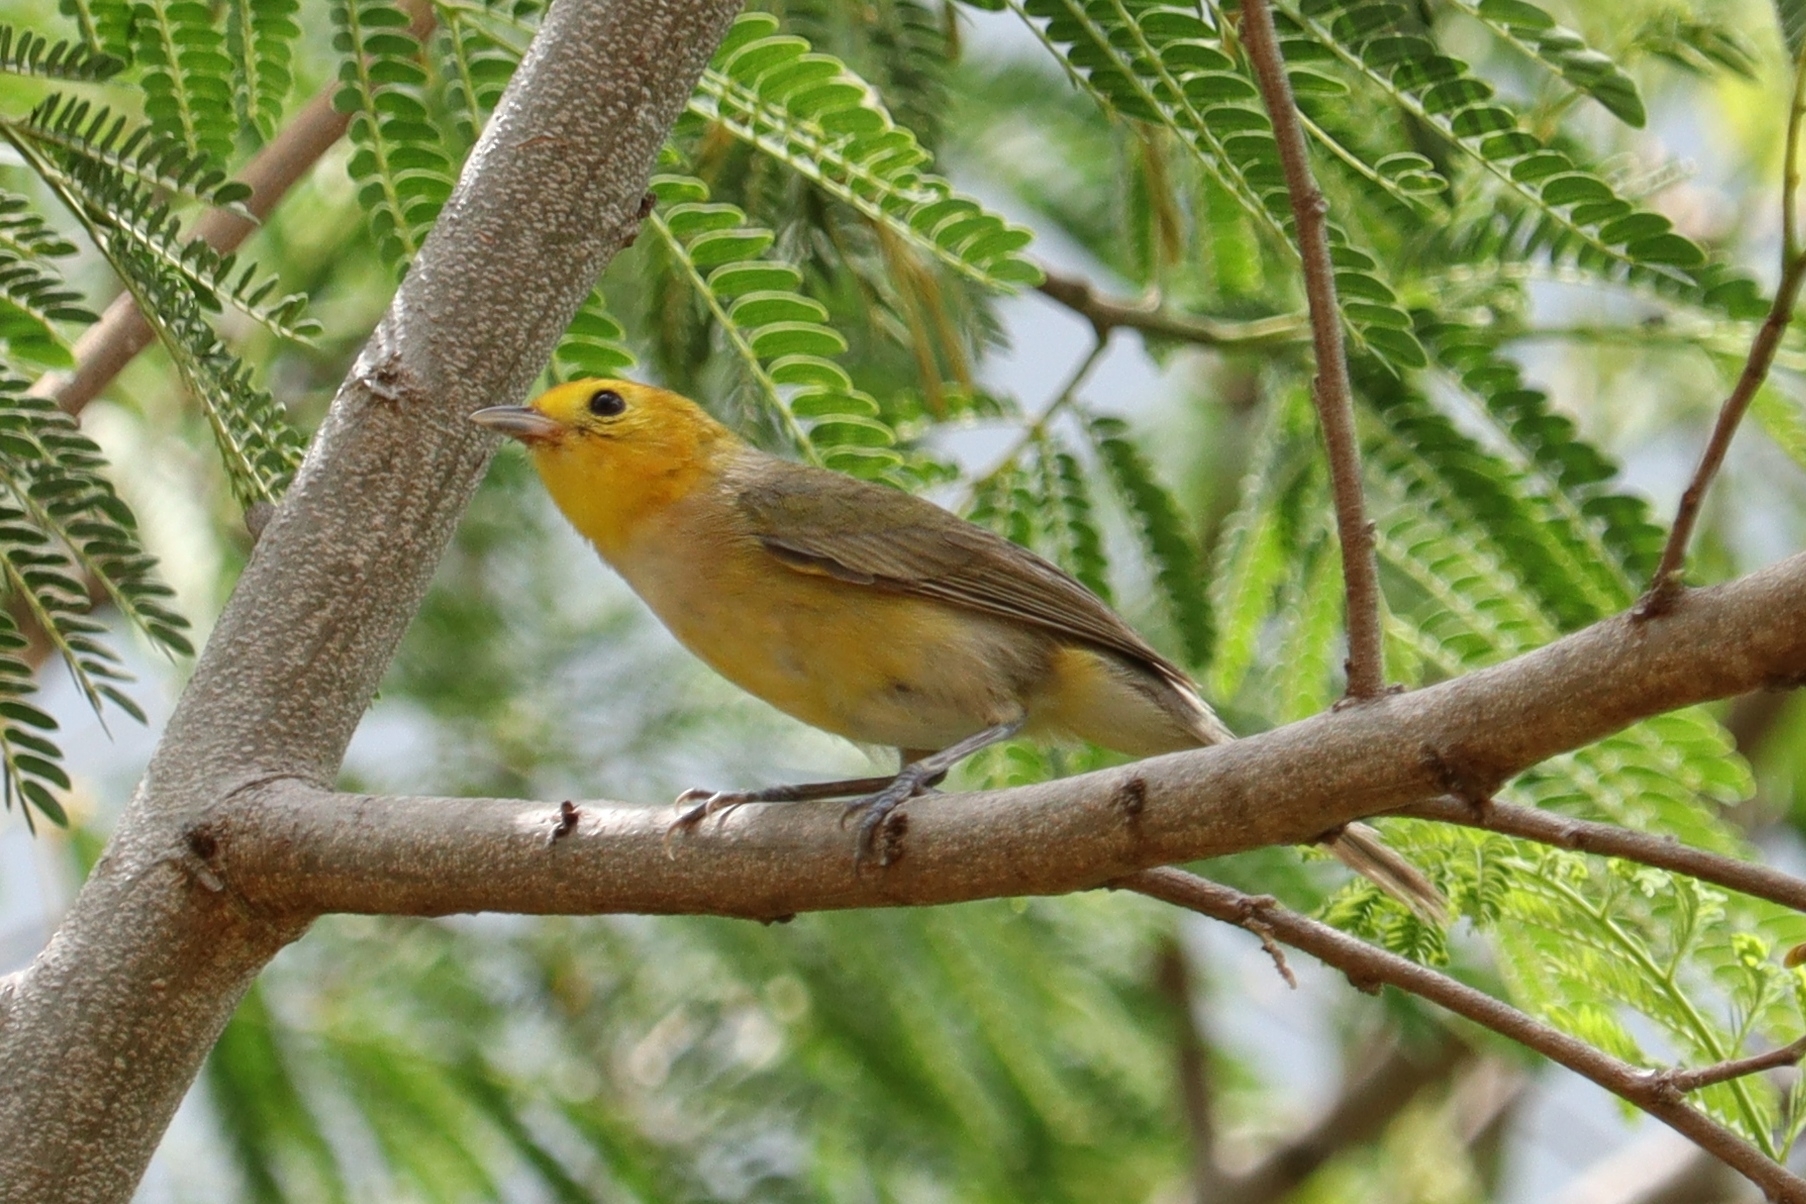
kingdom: Animalia
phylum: Chordata
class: Aves
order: Passeriformes
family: Thraupidae
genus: Thlypopsis
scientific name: Thlypopsis sordida
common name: Orange-headed tanager
